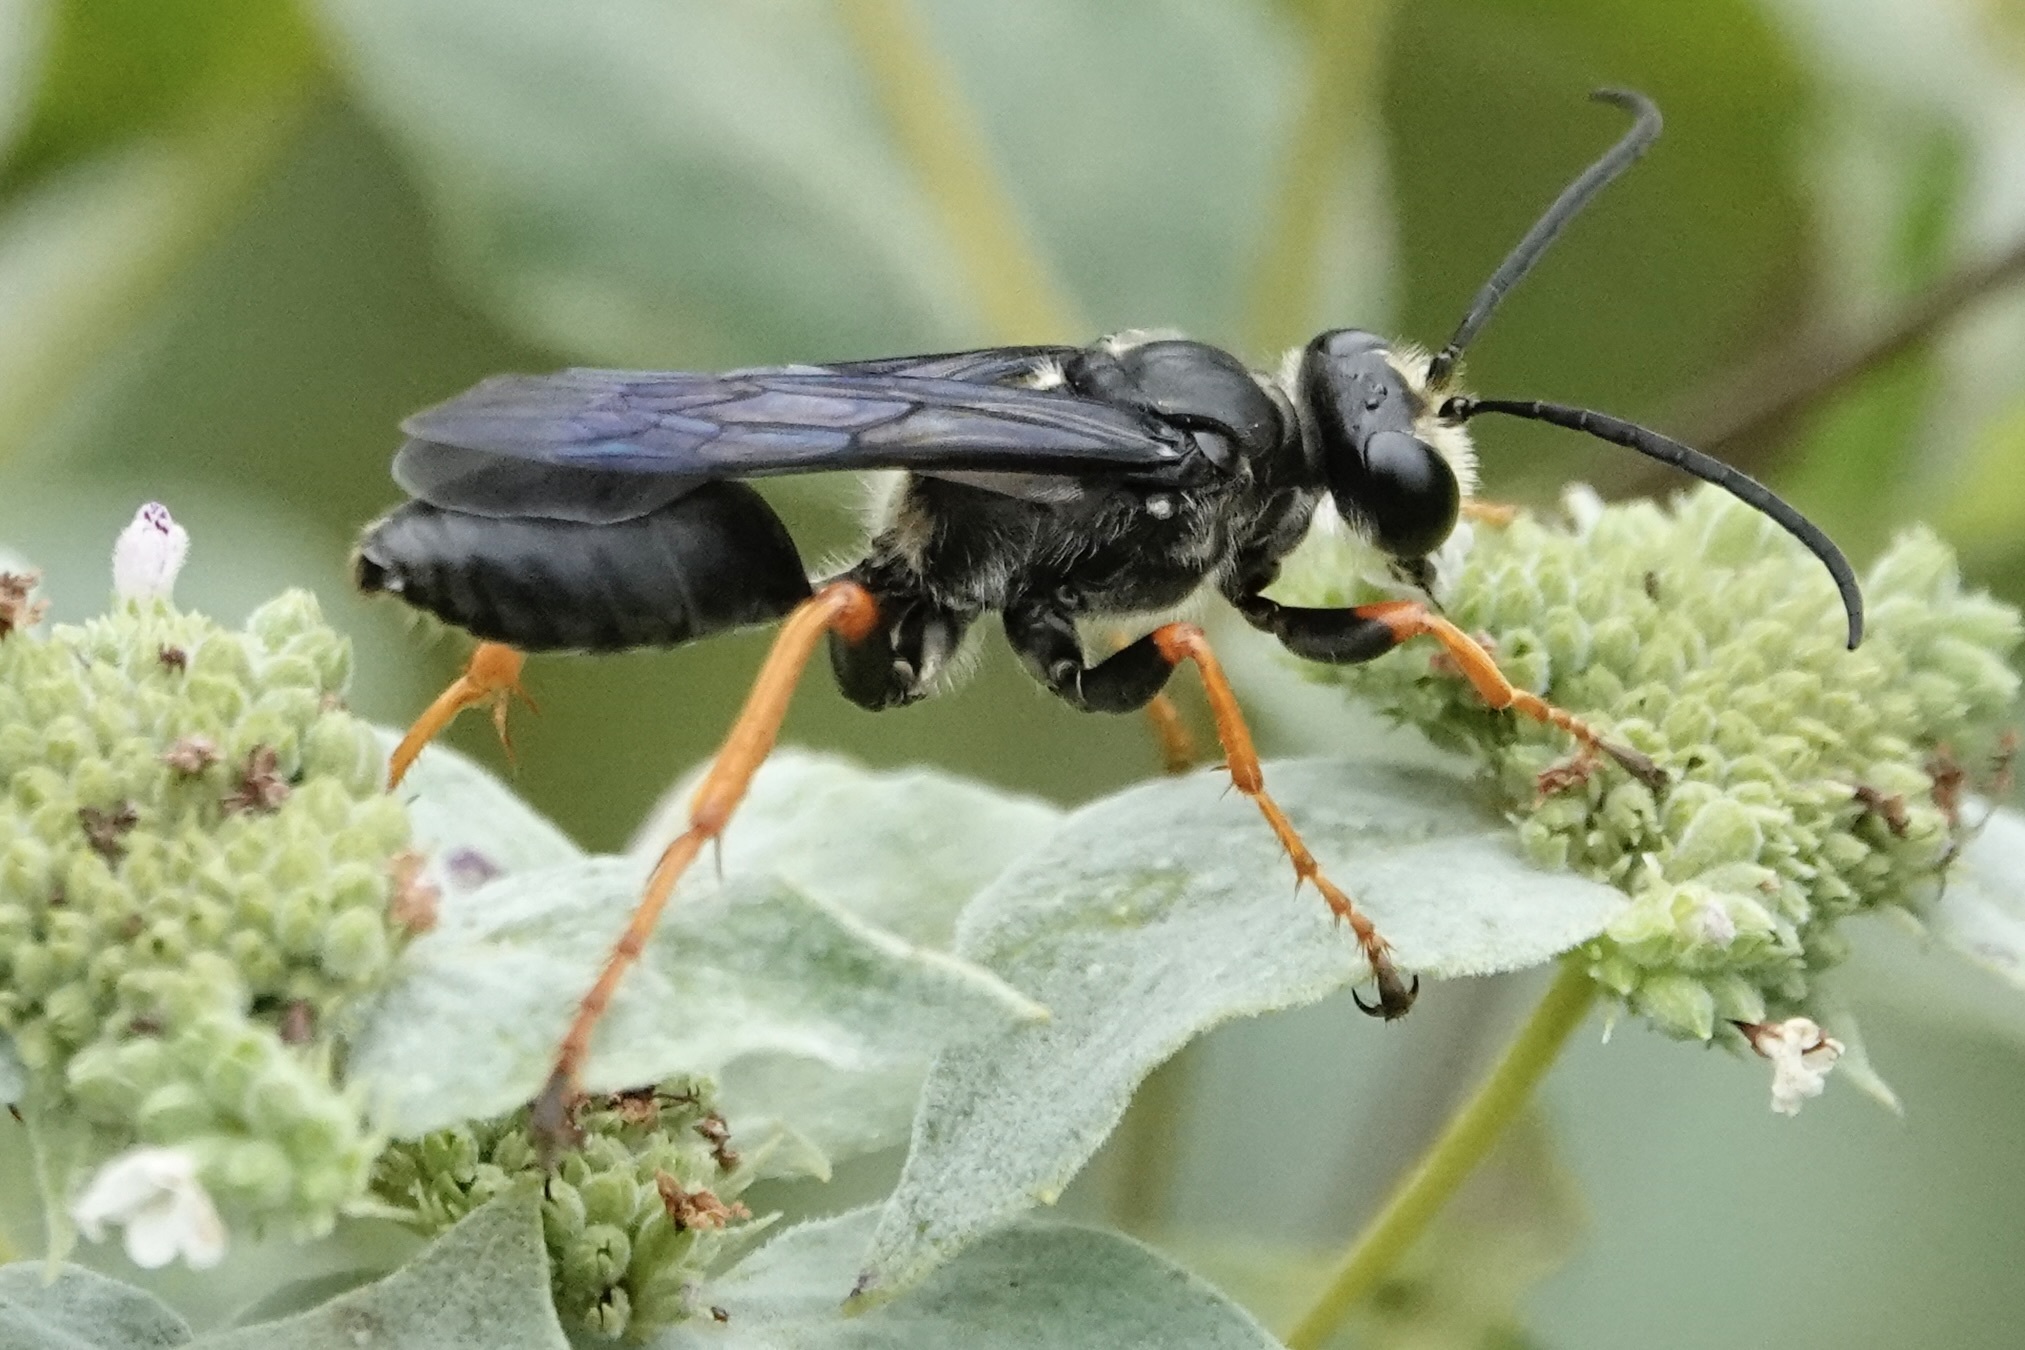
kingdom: Animalia
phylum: Arthropoda
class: Insecta
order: Hymenoptera
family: Sphecidae
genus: Sphex
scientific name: Sphex nudus
